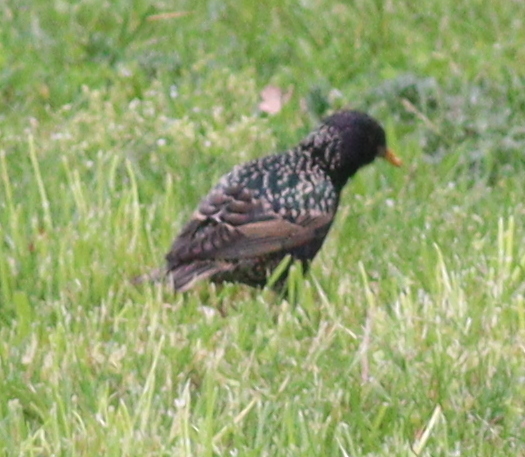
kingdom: Animalia
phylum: Chordata
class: Aves
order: Passeriformes
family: Sturnidae
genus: Sturnus
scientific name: Sturnus vulgaris
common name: Common starling
